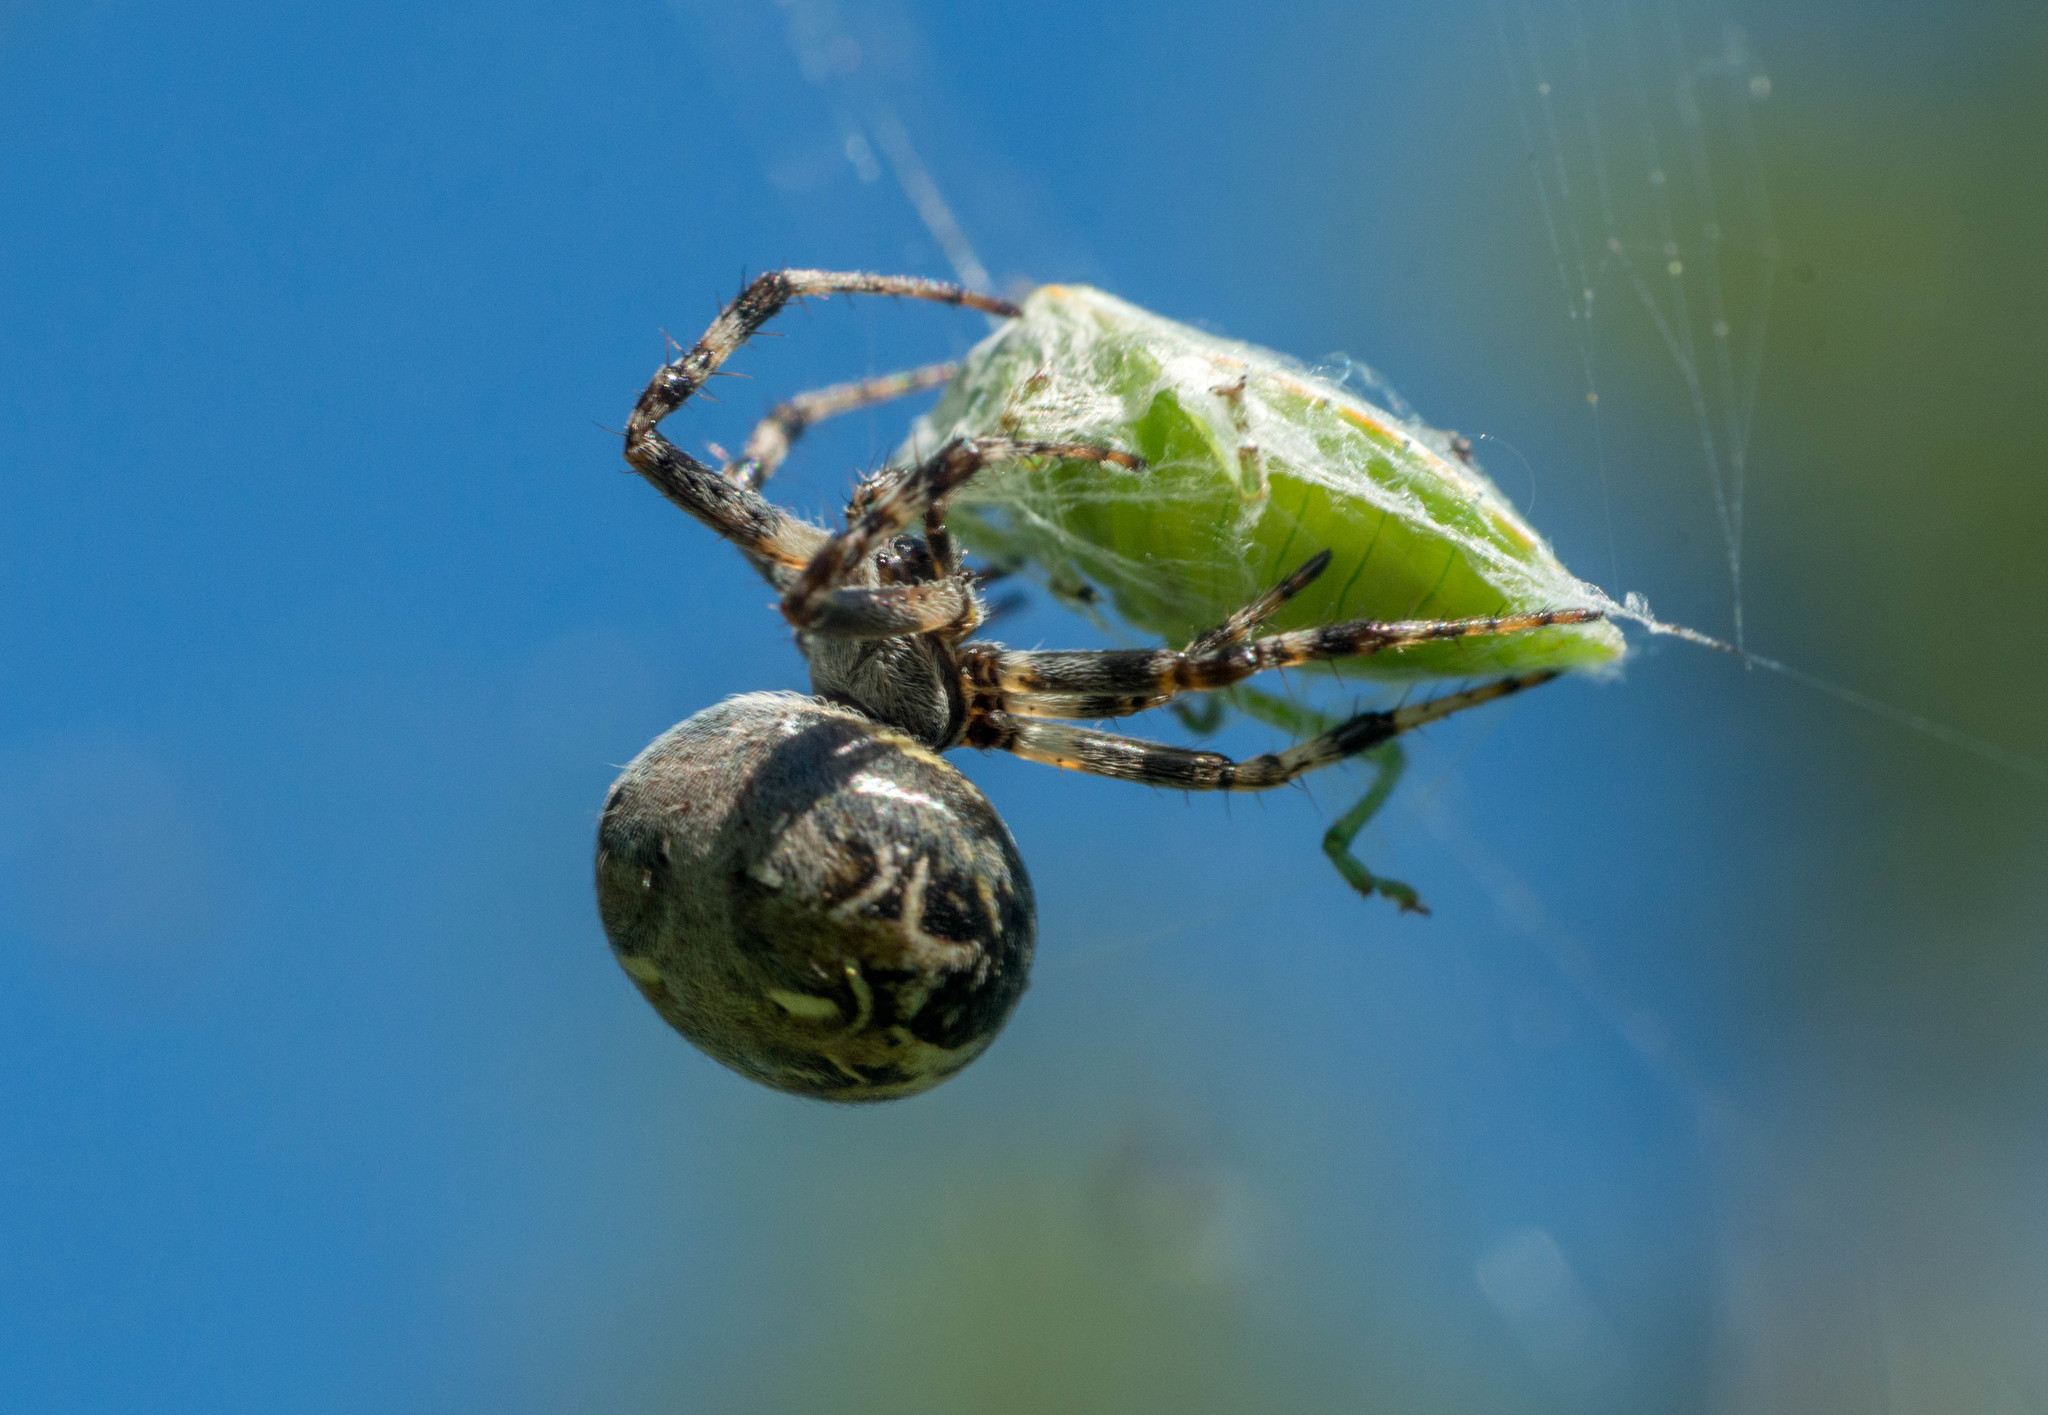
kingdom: Animalia
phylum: Arthropoda
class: Arachnida
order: Araneae
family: Araneidae
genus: Metepeira
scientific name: Metepeira
